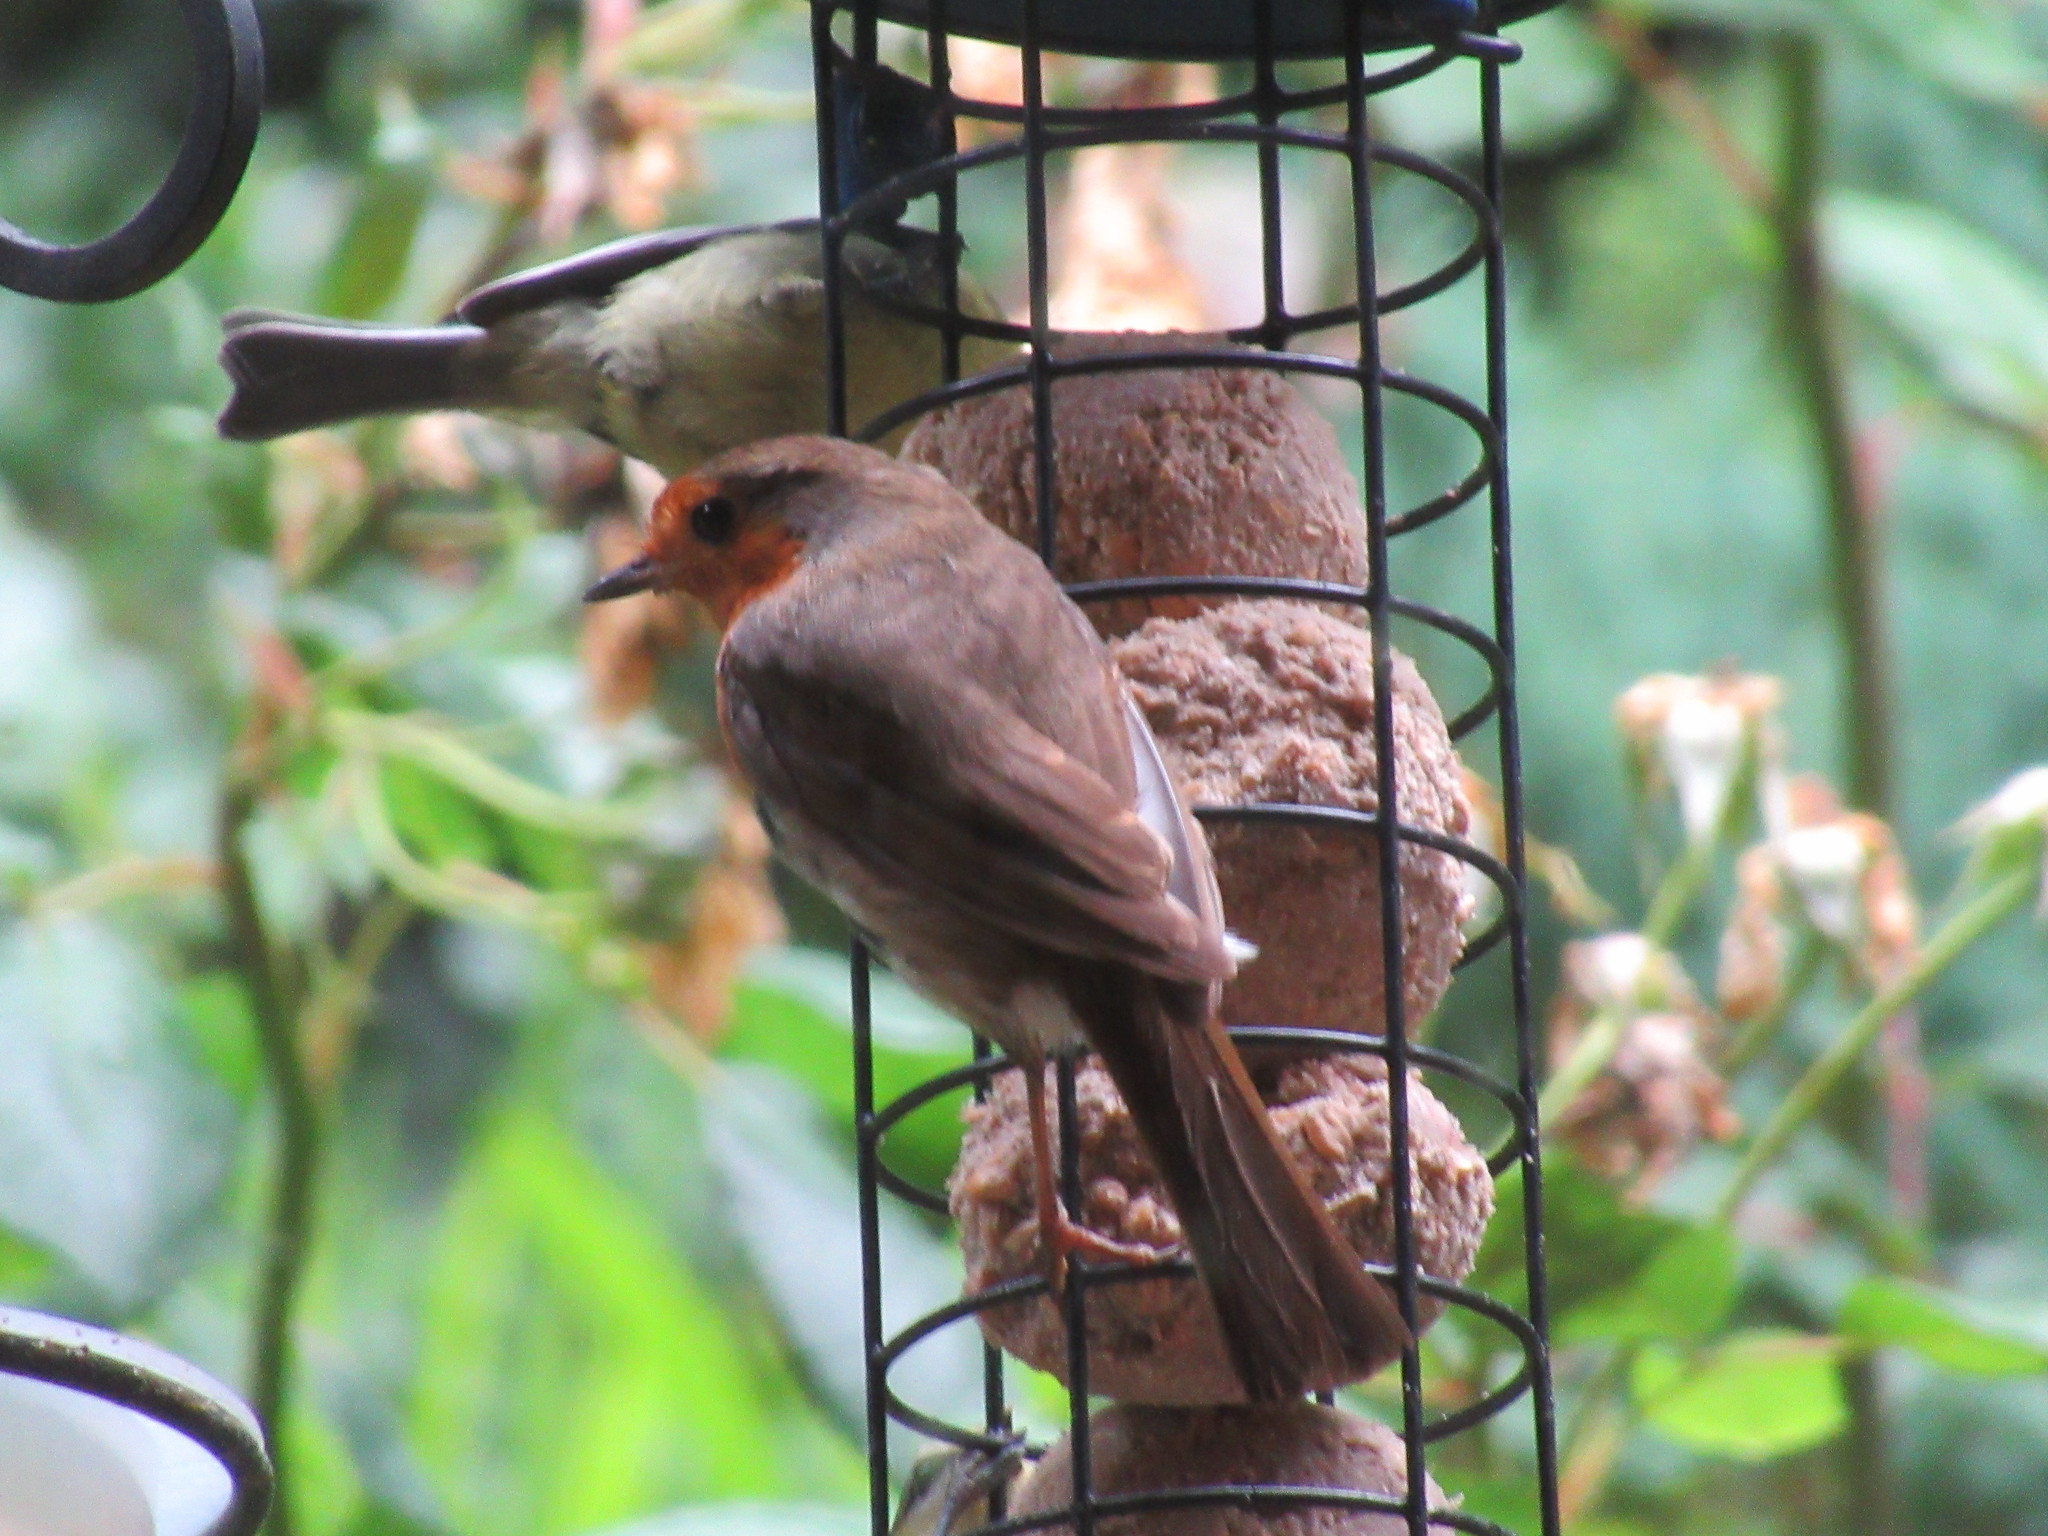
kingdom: Animalia
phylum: Chordata
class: Aves
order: Passeriformes
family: Muscicapidae
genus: Erithacus
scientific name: Erithacus rubecula
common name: European robin
